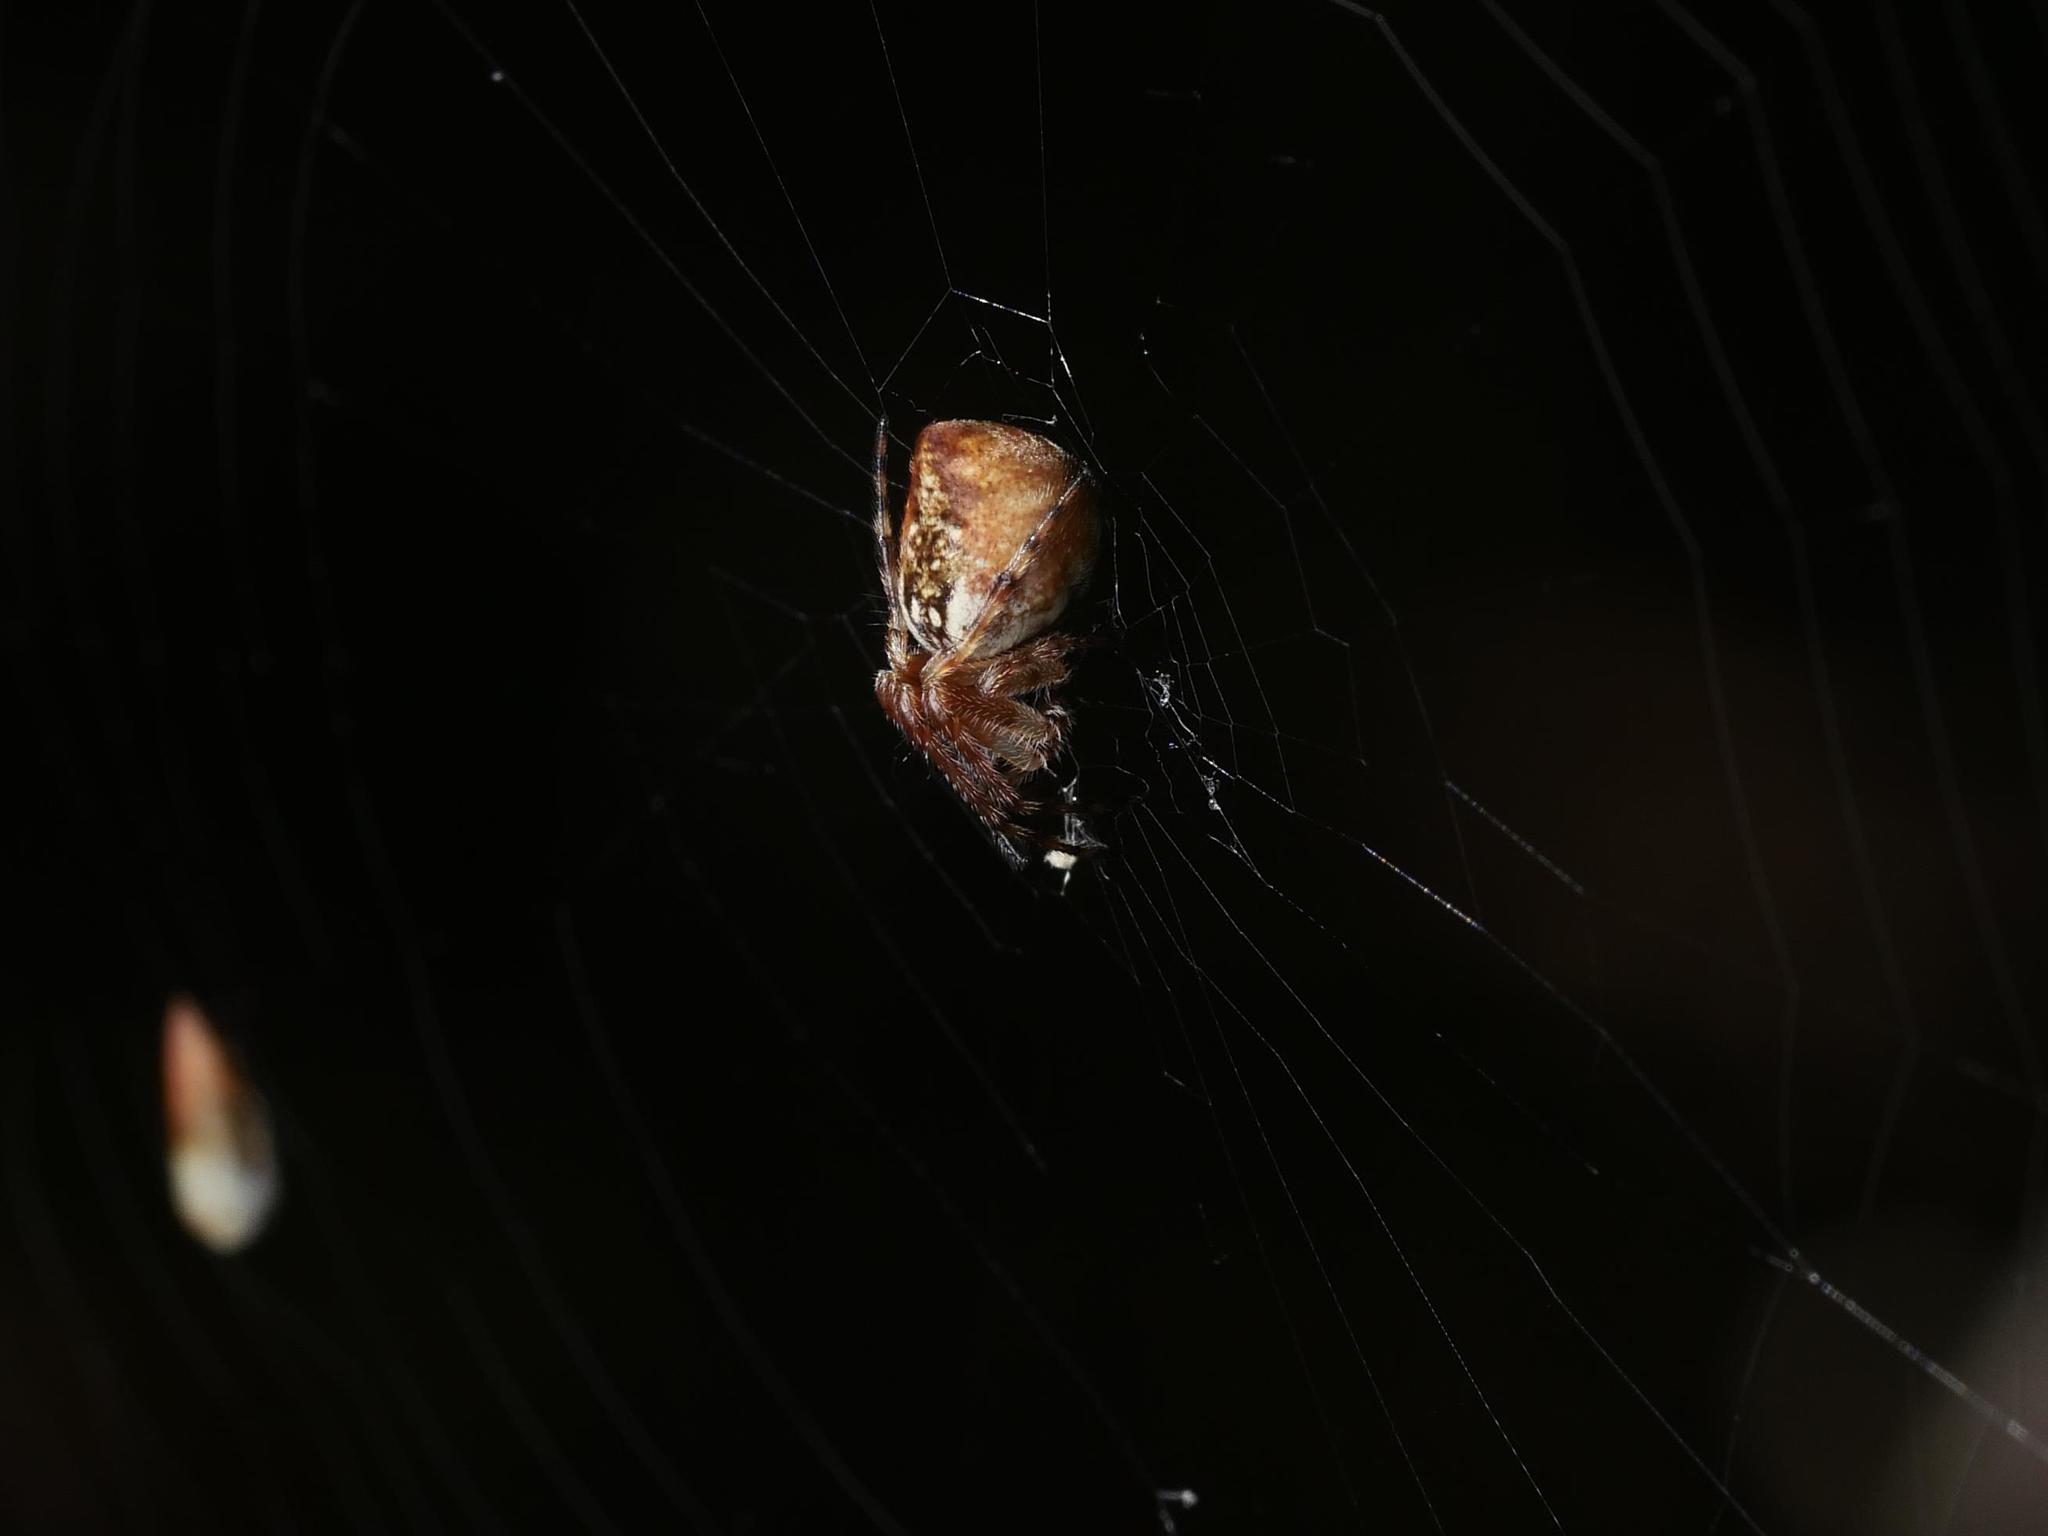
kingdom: Animalia
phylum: Arthropoda
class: Arachnida
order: Araneae
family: Araneidae
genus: Cyclosa
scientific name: Cyclosa conica
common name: Conical trashline orbweaver
